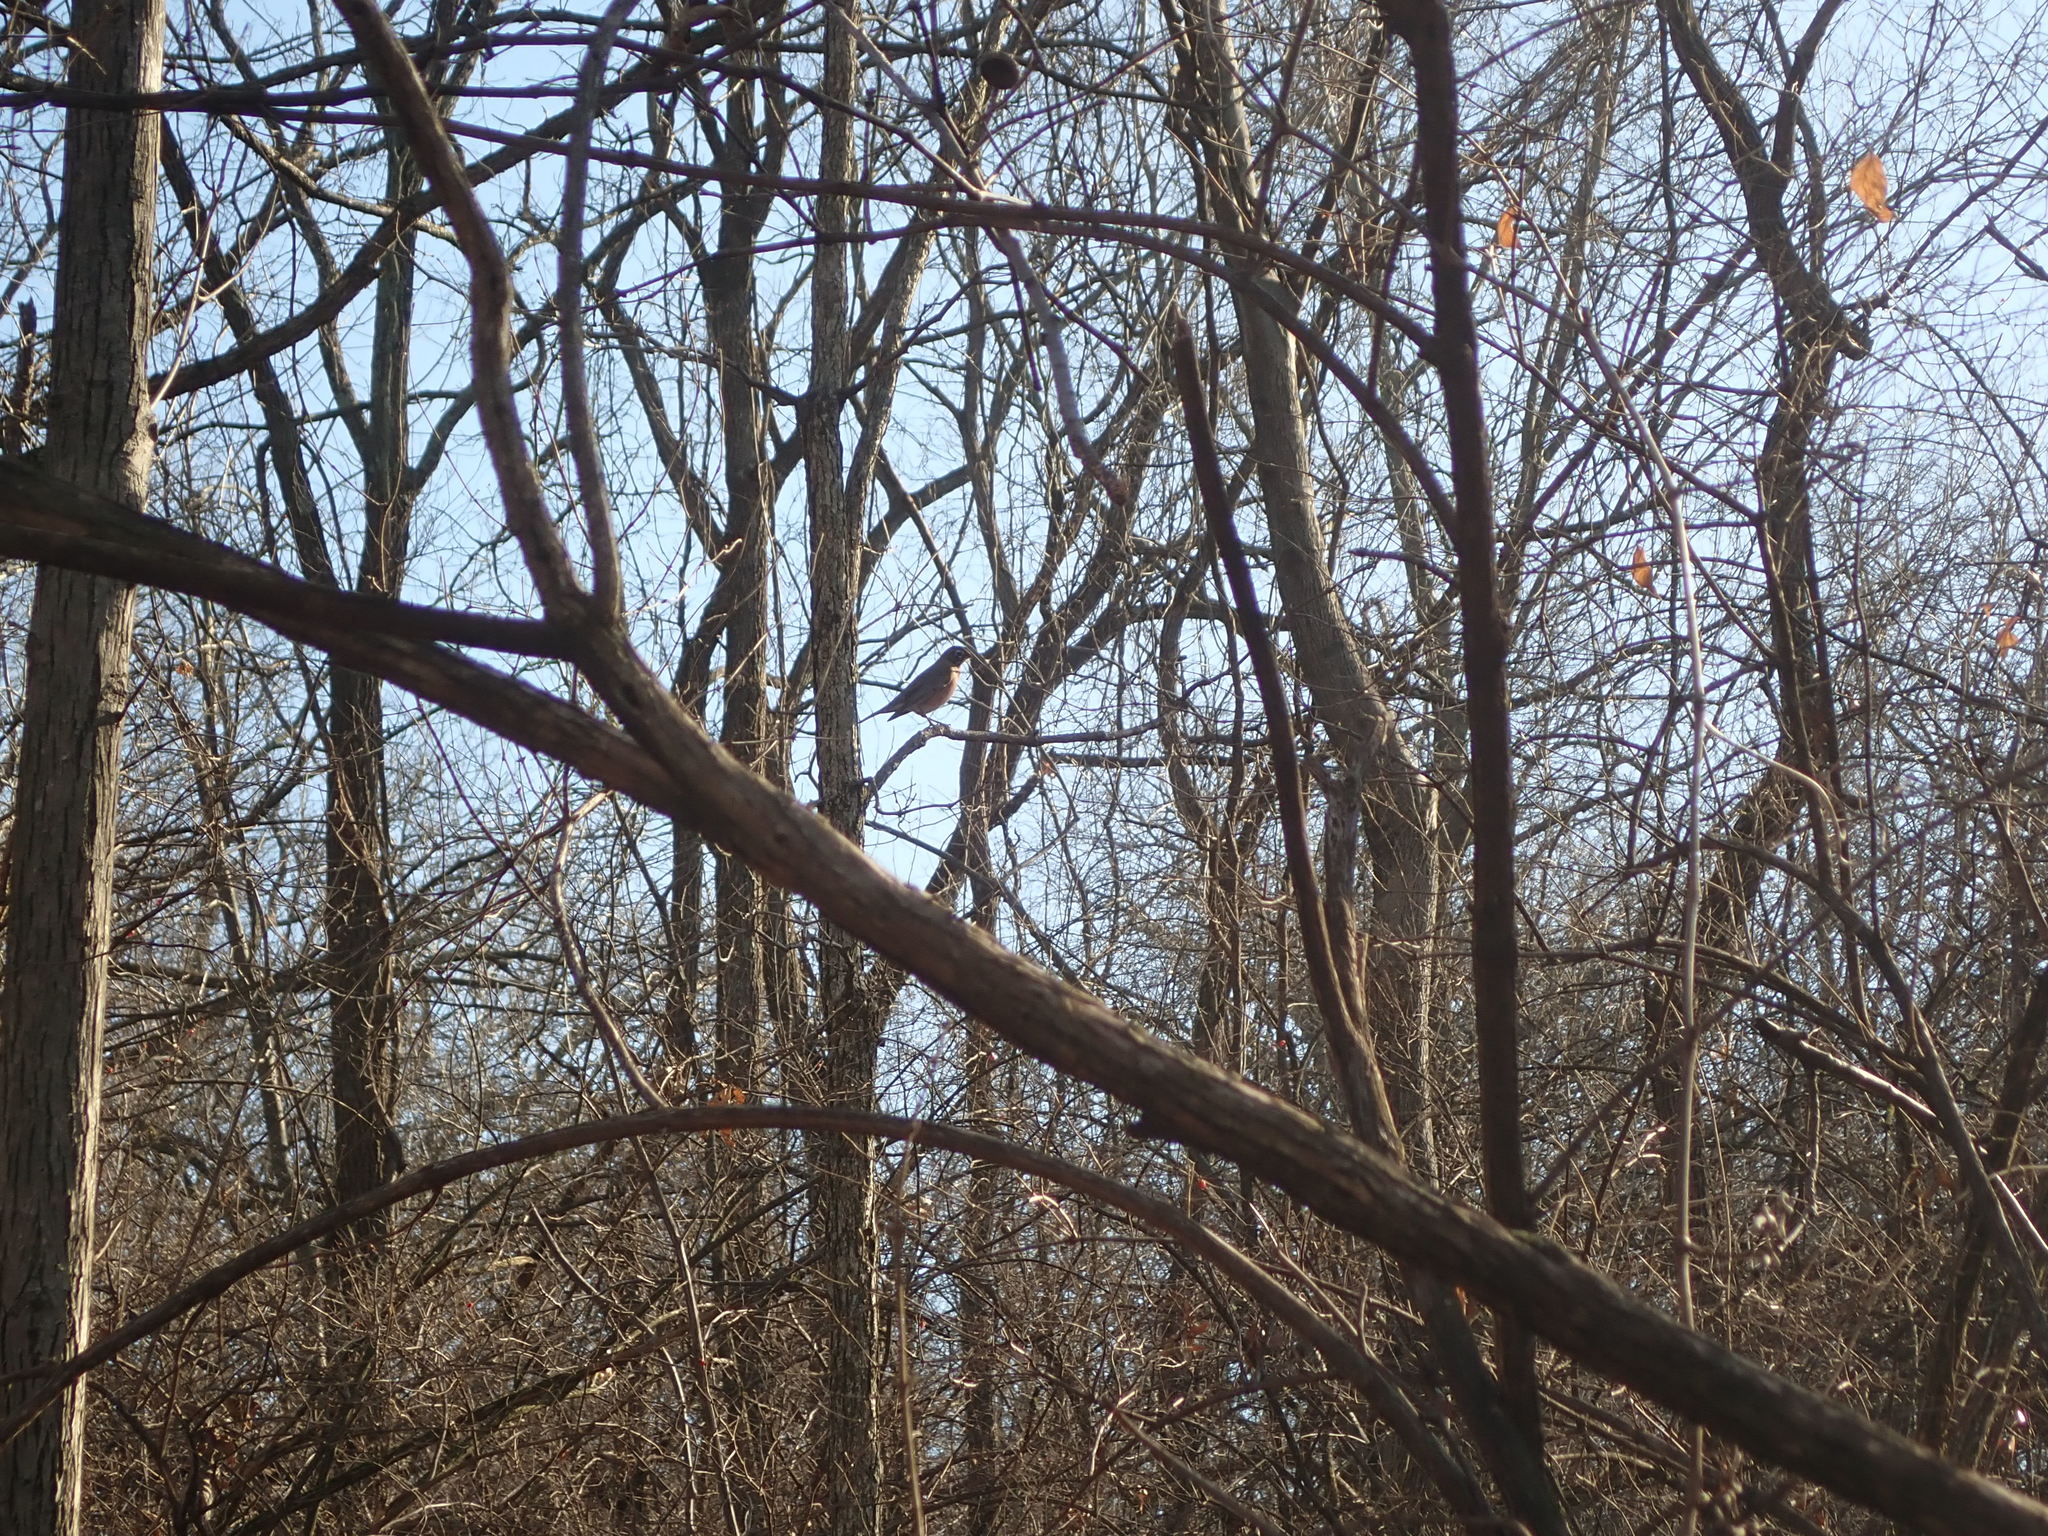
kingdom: Animalia
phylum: Chordata
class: Aves
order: Passeriformes
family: Turdidae
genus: Turdus
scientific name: Turdus migratorius
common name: American robin
